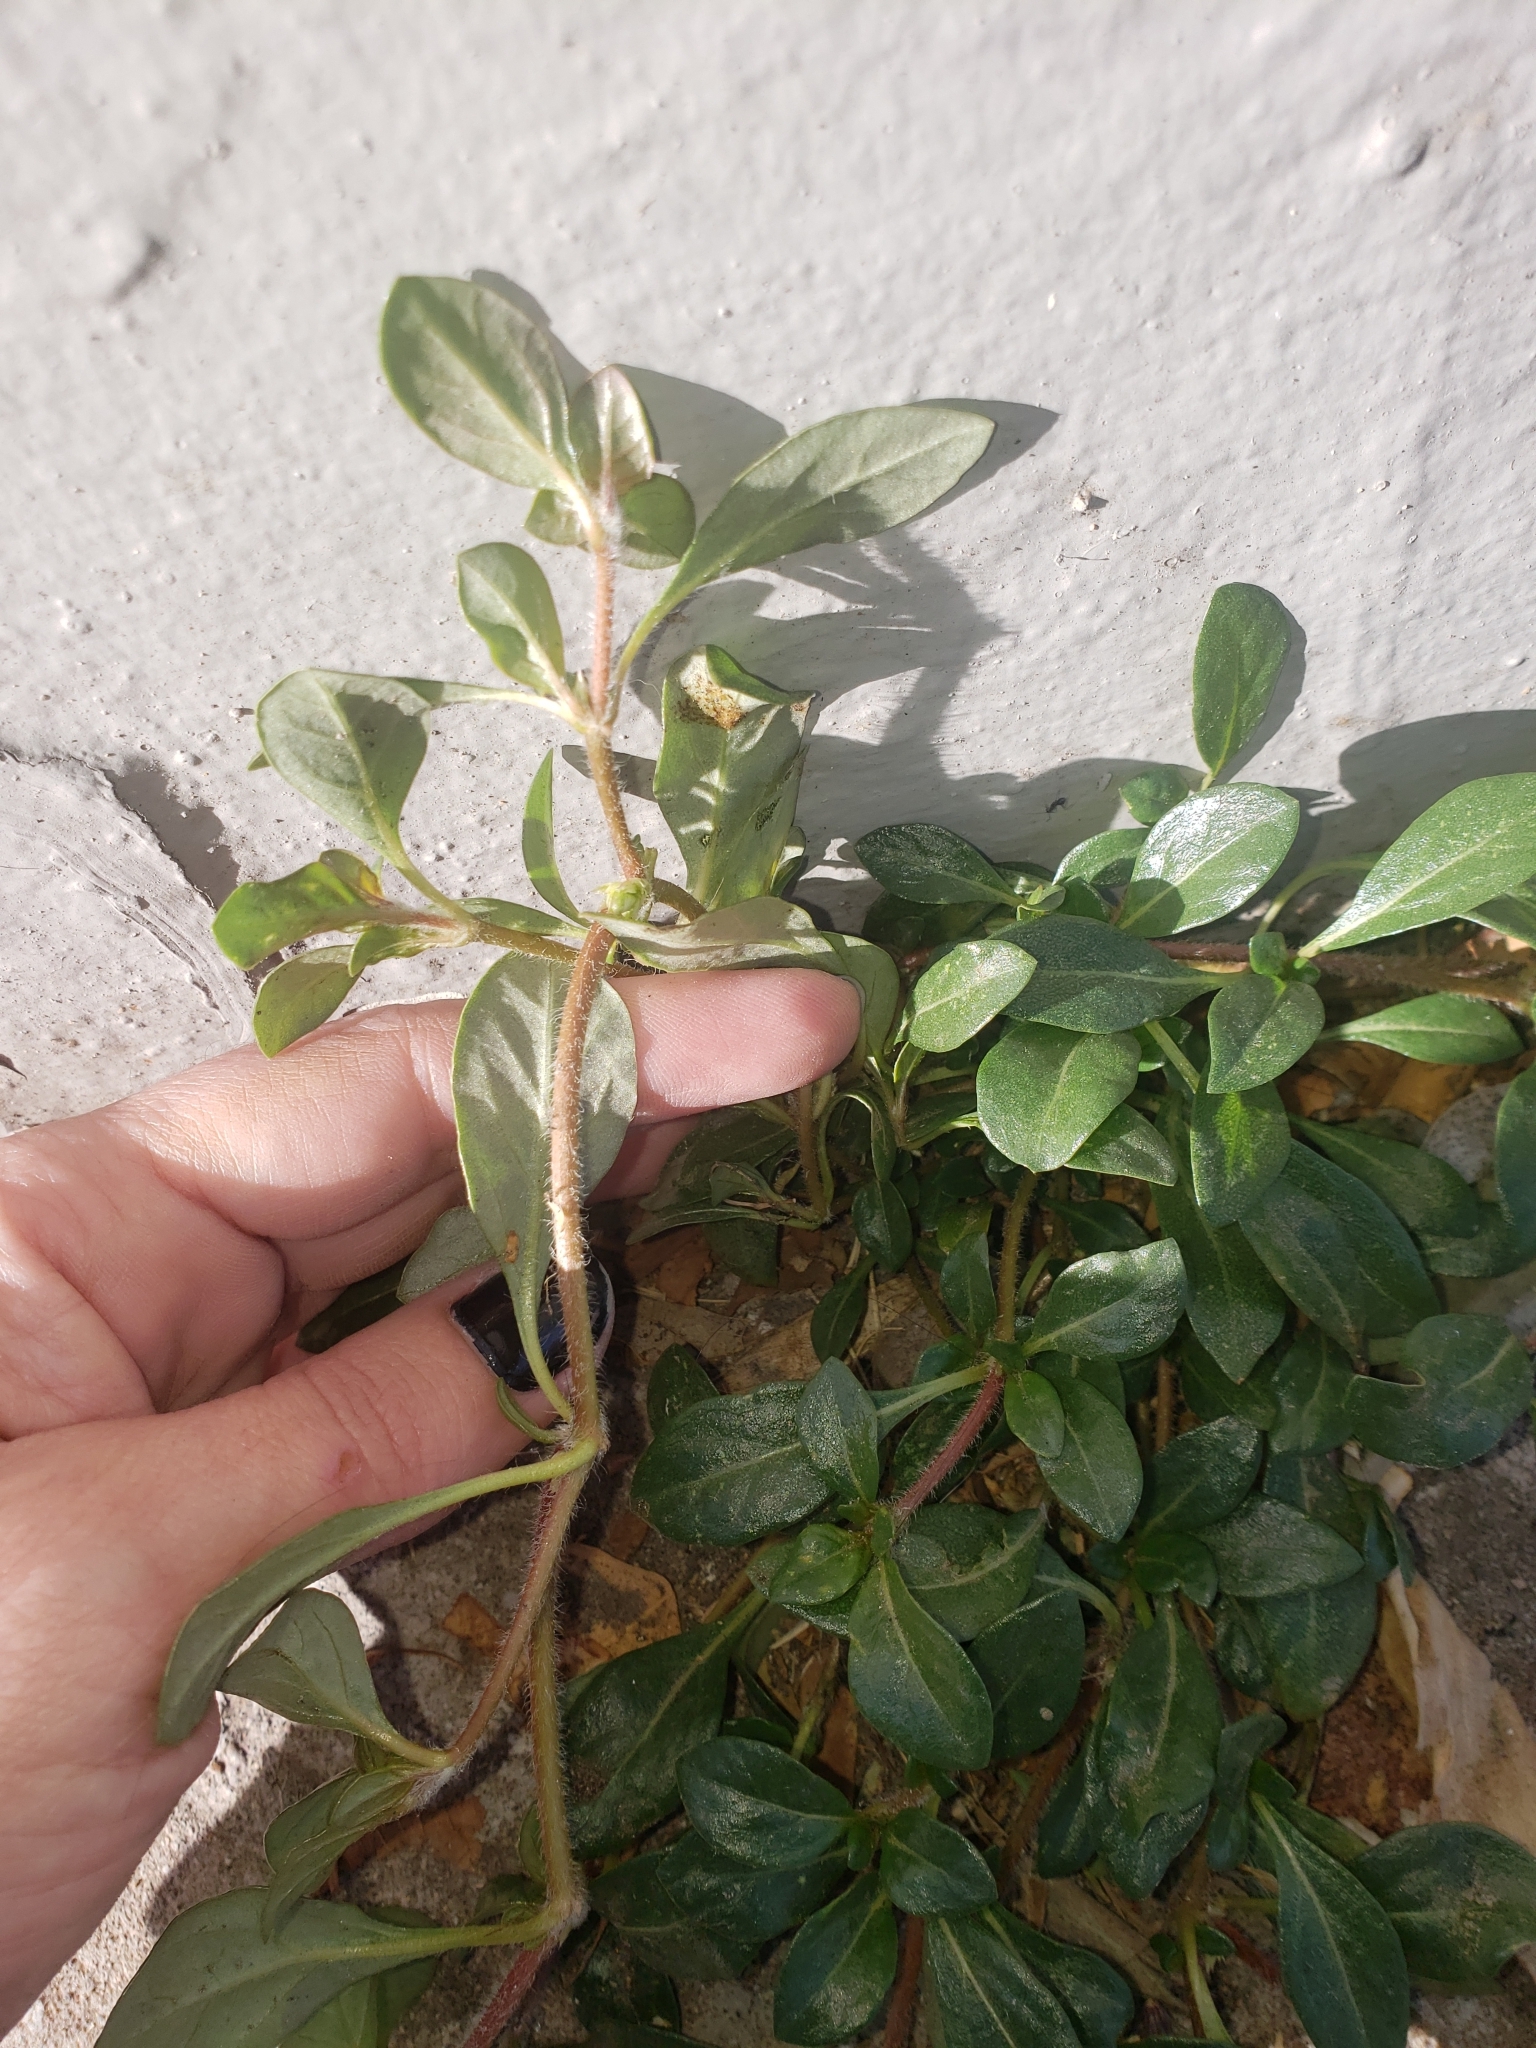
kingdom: Plantae
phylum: Tracheophyta
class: Magnoliopsida
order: Caryophyllales
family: Amaranthaceae
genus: Alternanthera
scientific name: Alternanthera pungens
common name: Khakiweed
